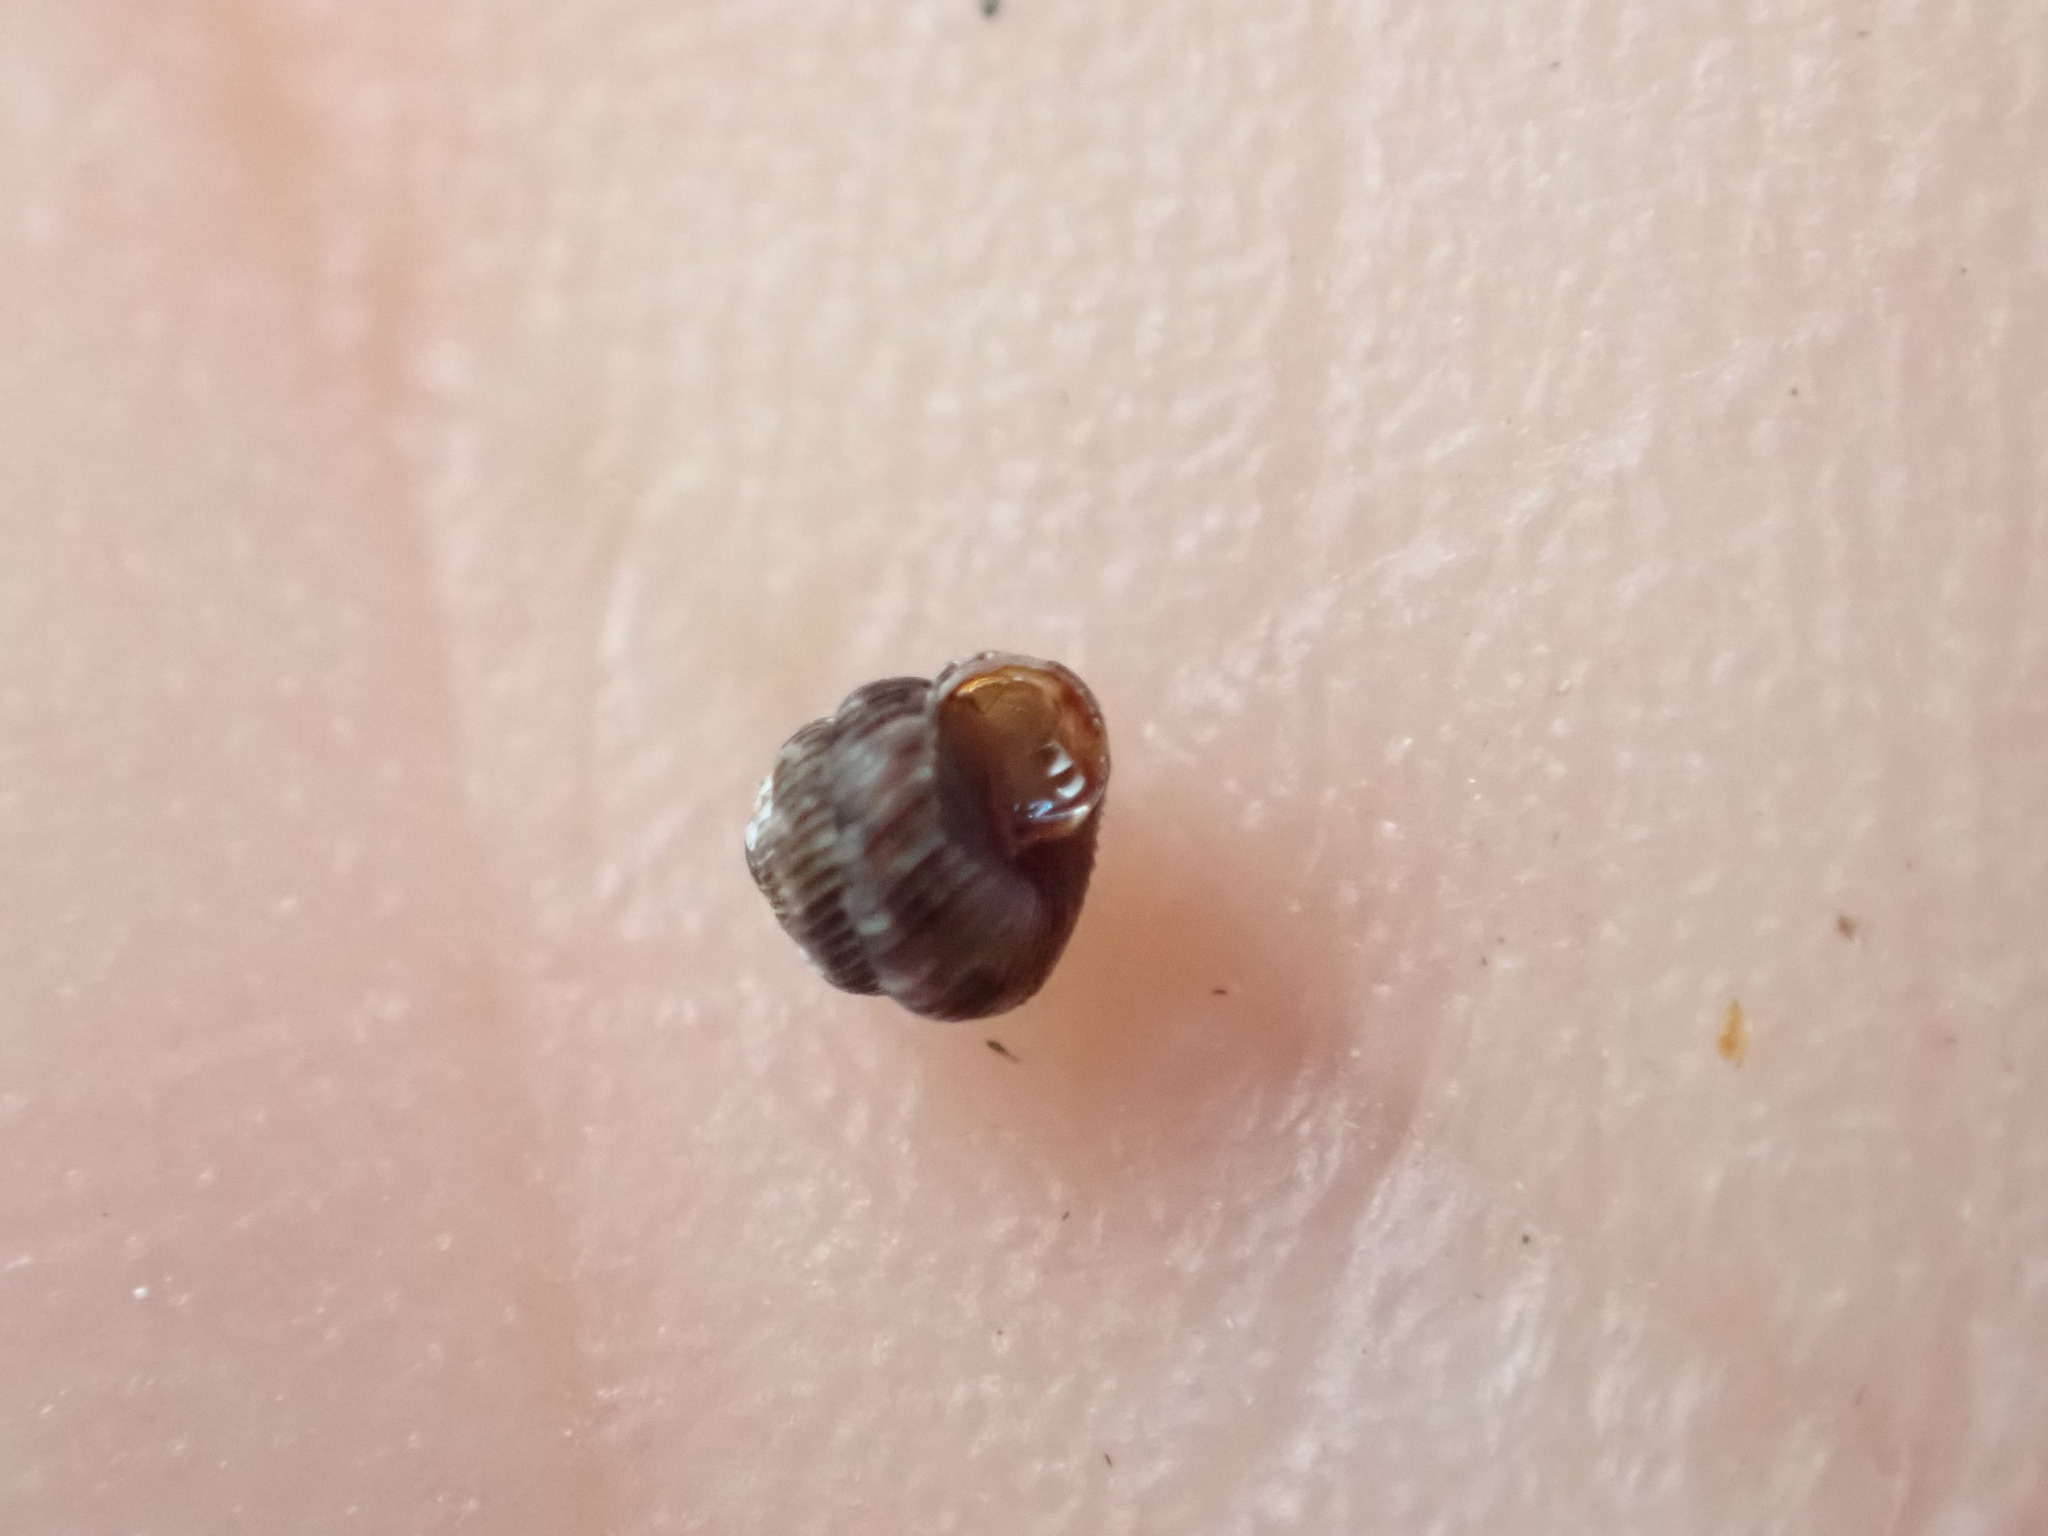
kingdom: Animalia
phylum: Mollusca
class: Gastropoda
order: Stylommatophora
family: Charopidae
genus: Phenacharopa
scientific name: Phenacharopa novoseelandica
